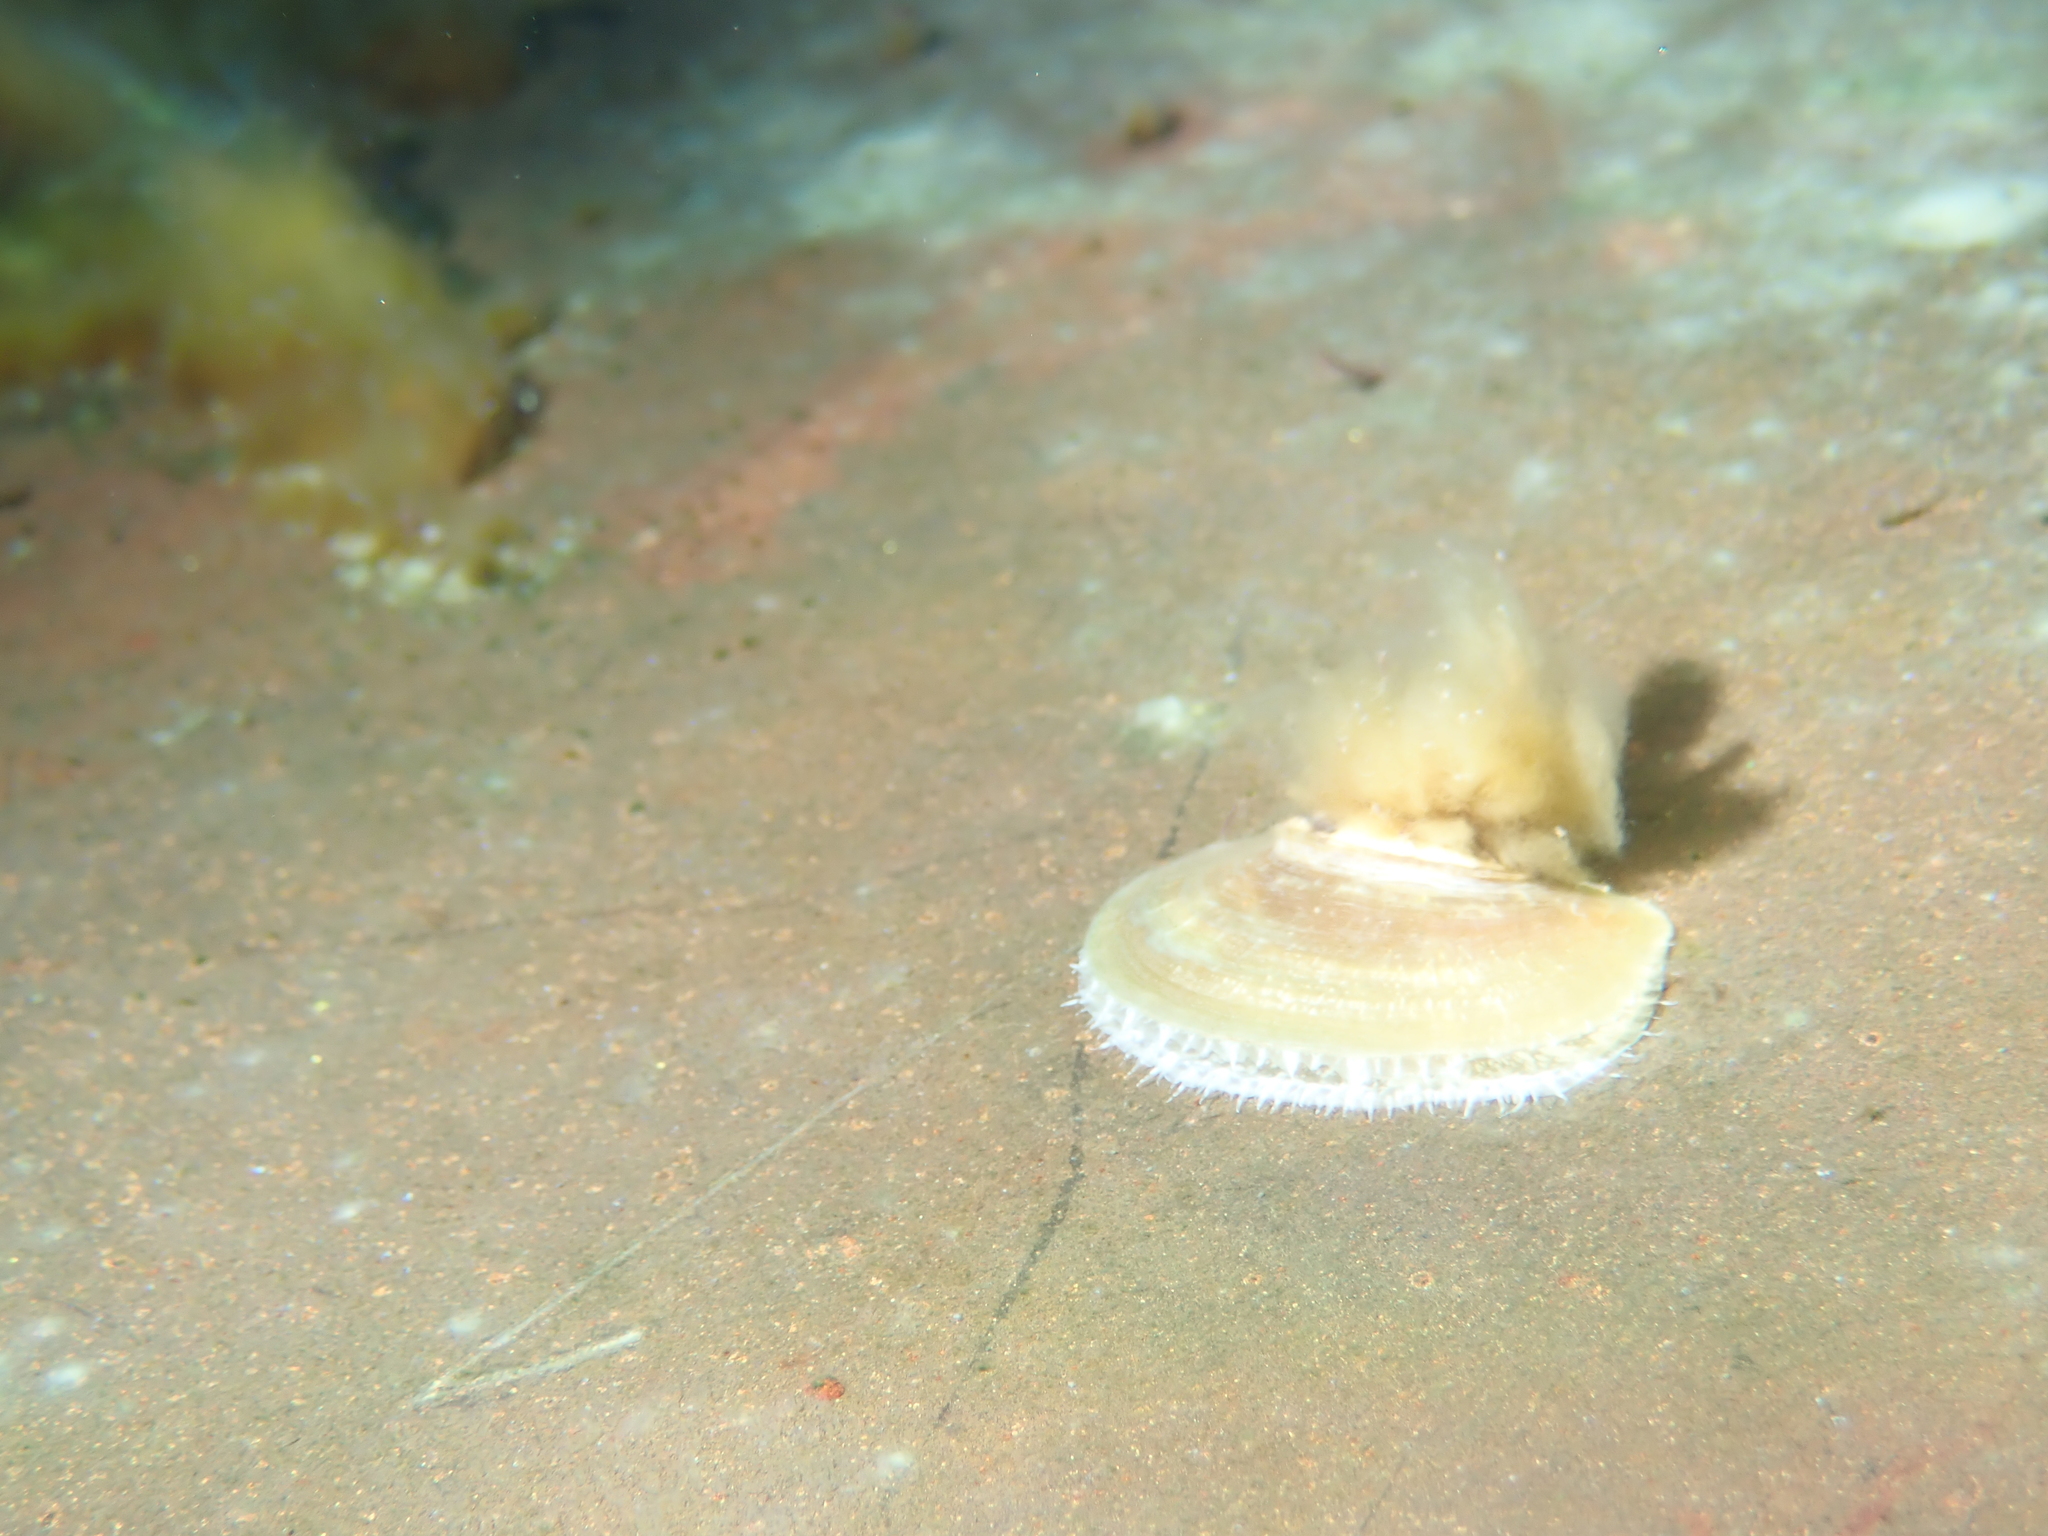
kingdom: Animalia
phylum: Mollusca
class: Bivalvia
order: Pectinida
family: Anomiidae
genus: Anomia
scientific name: Anomia ephippium
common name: Saddle oyster
